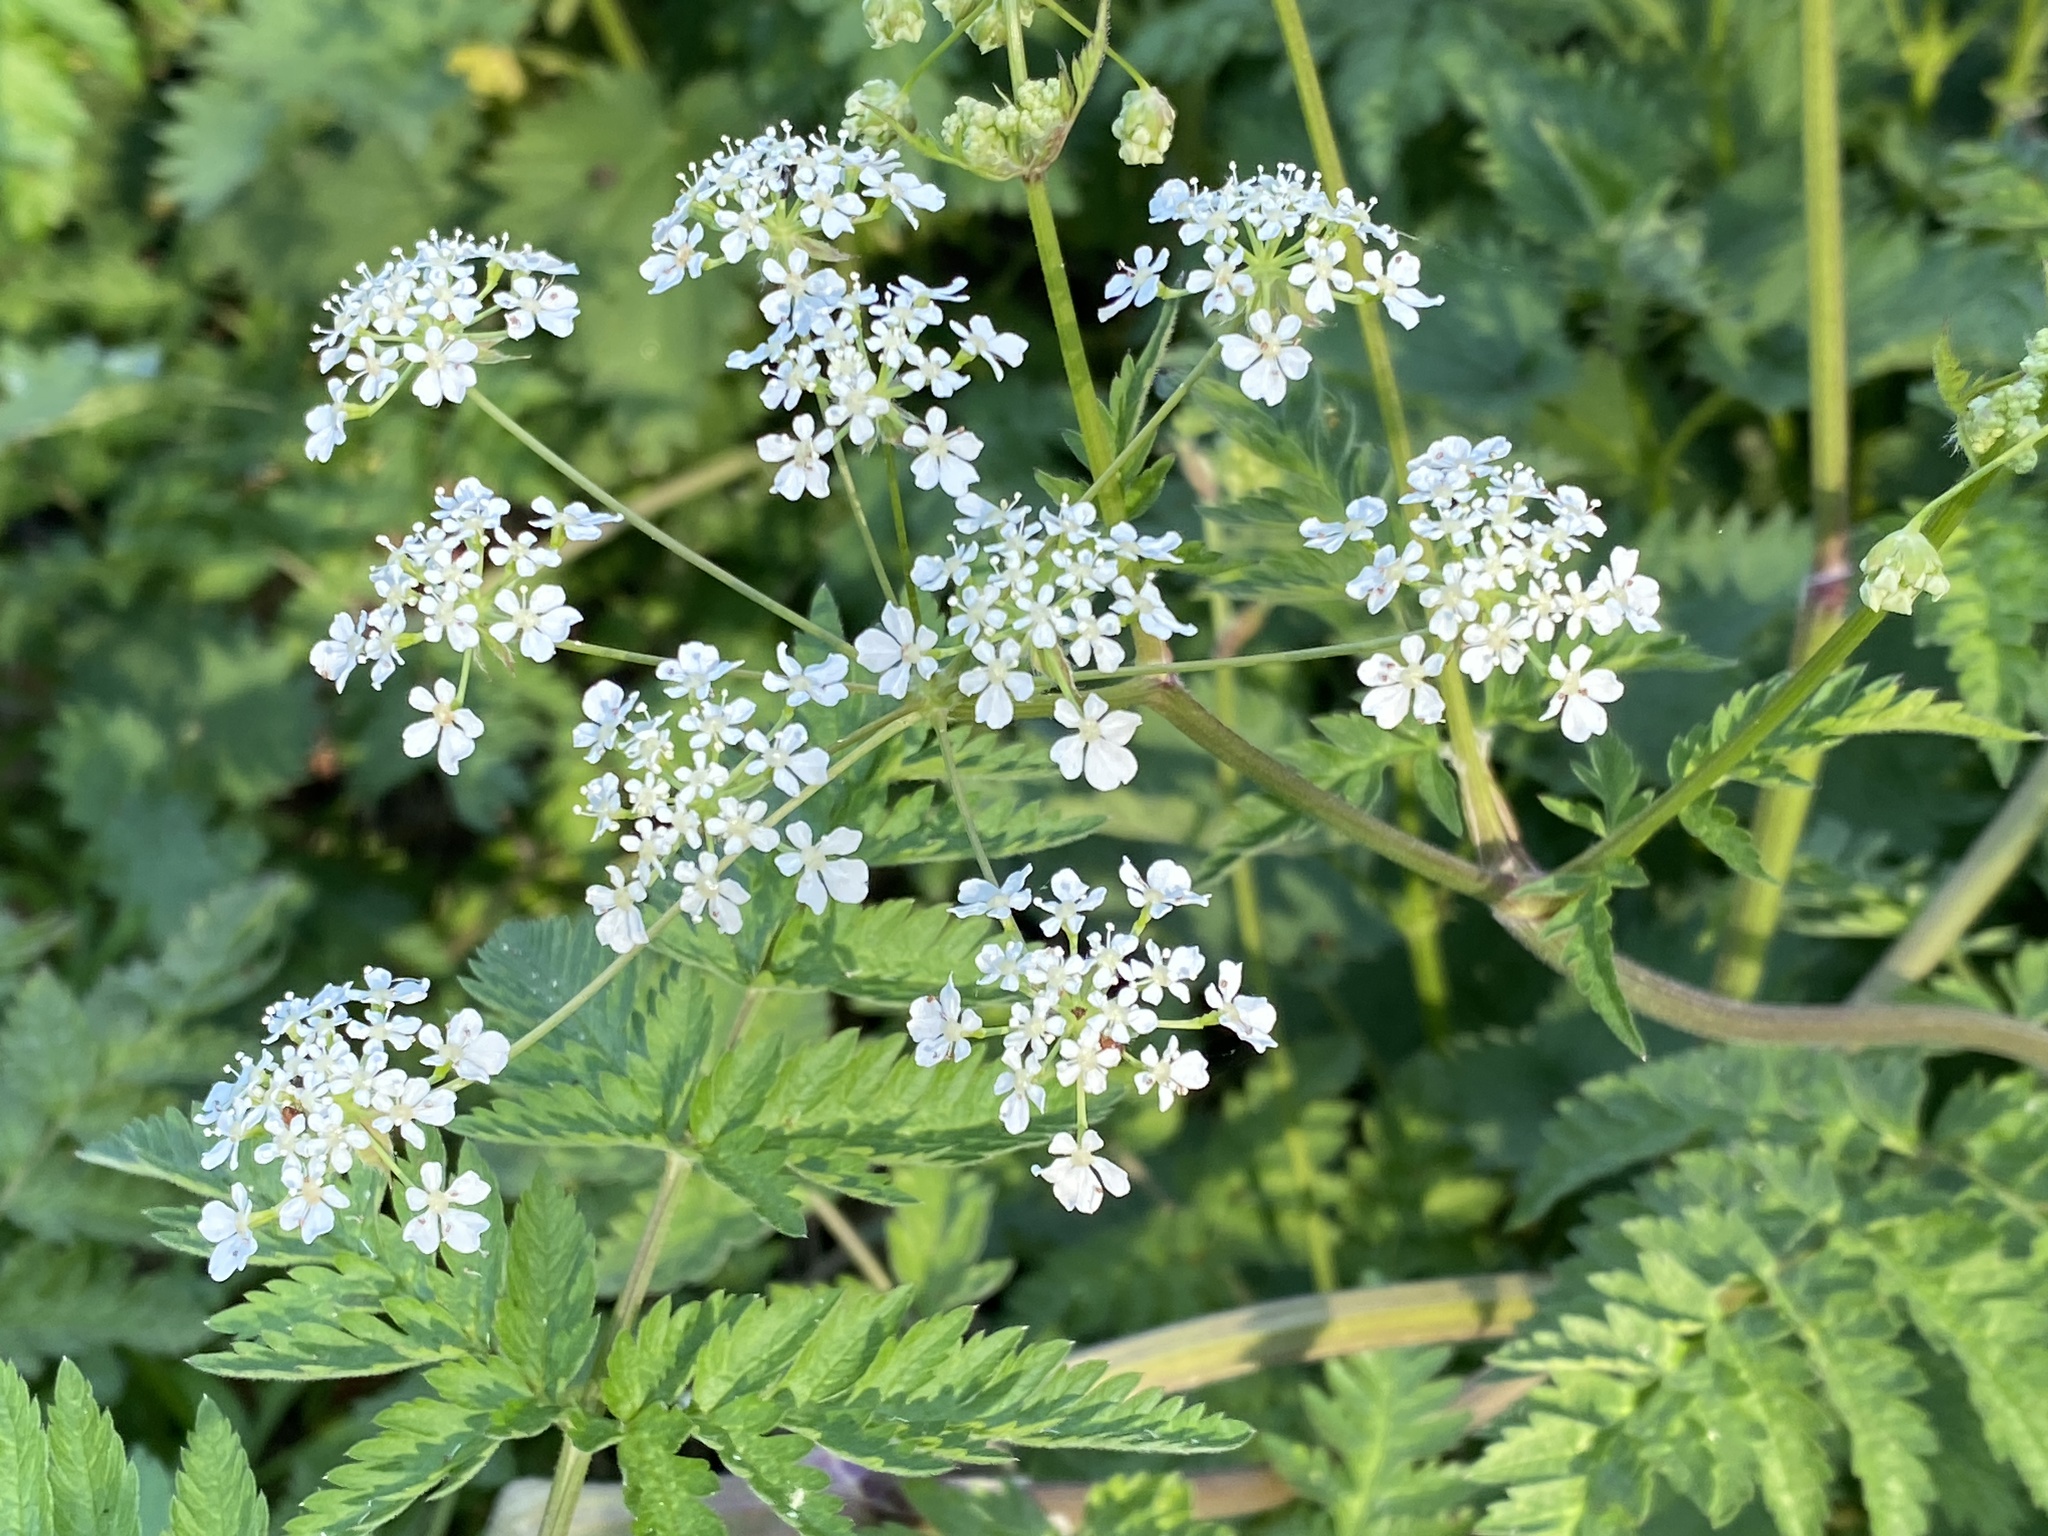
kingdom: Plantae
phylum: Tracheophyta
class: Magnoliopsida
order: Apiales
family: Apiaceae
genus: Anthriscus
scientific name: Anthriscus sylvestris
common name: Cow parsley
